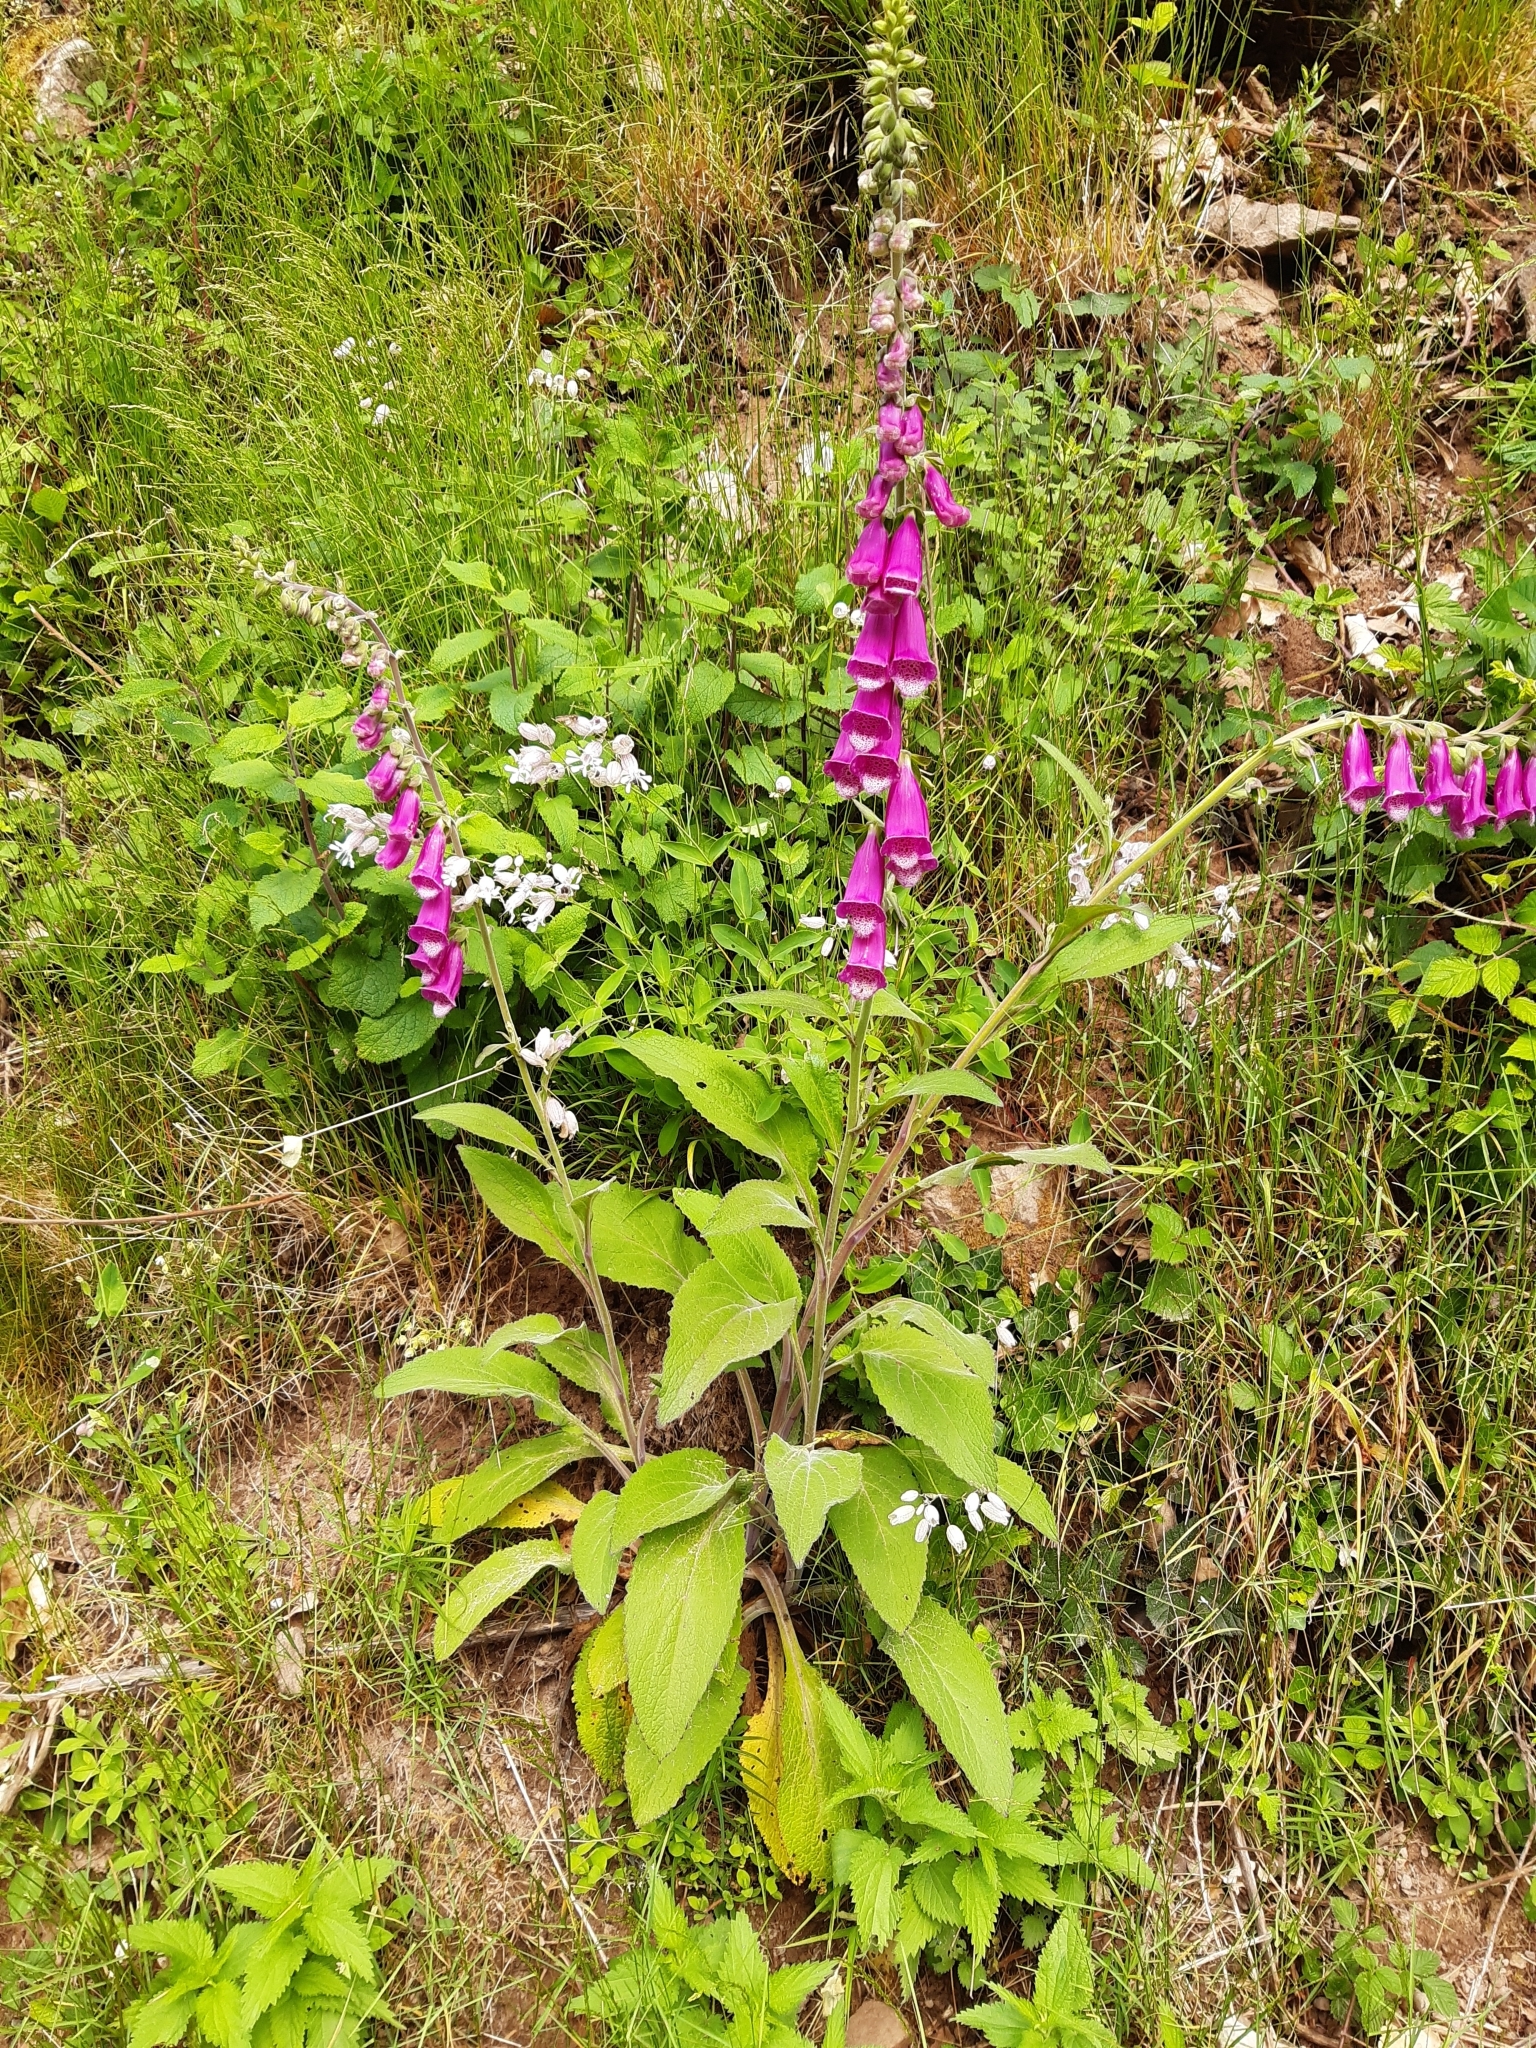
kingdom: Plantae
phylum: Tracheophyta
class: Magnoliopsida
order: Lamiales
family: Plantaginaceae
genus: Digitalis
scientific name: Digitalis purpurea
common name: Foxglove
